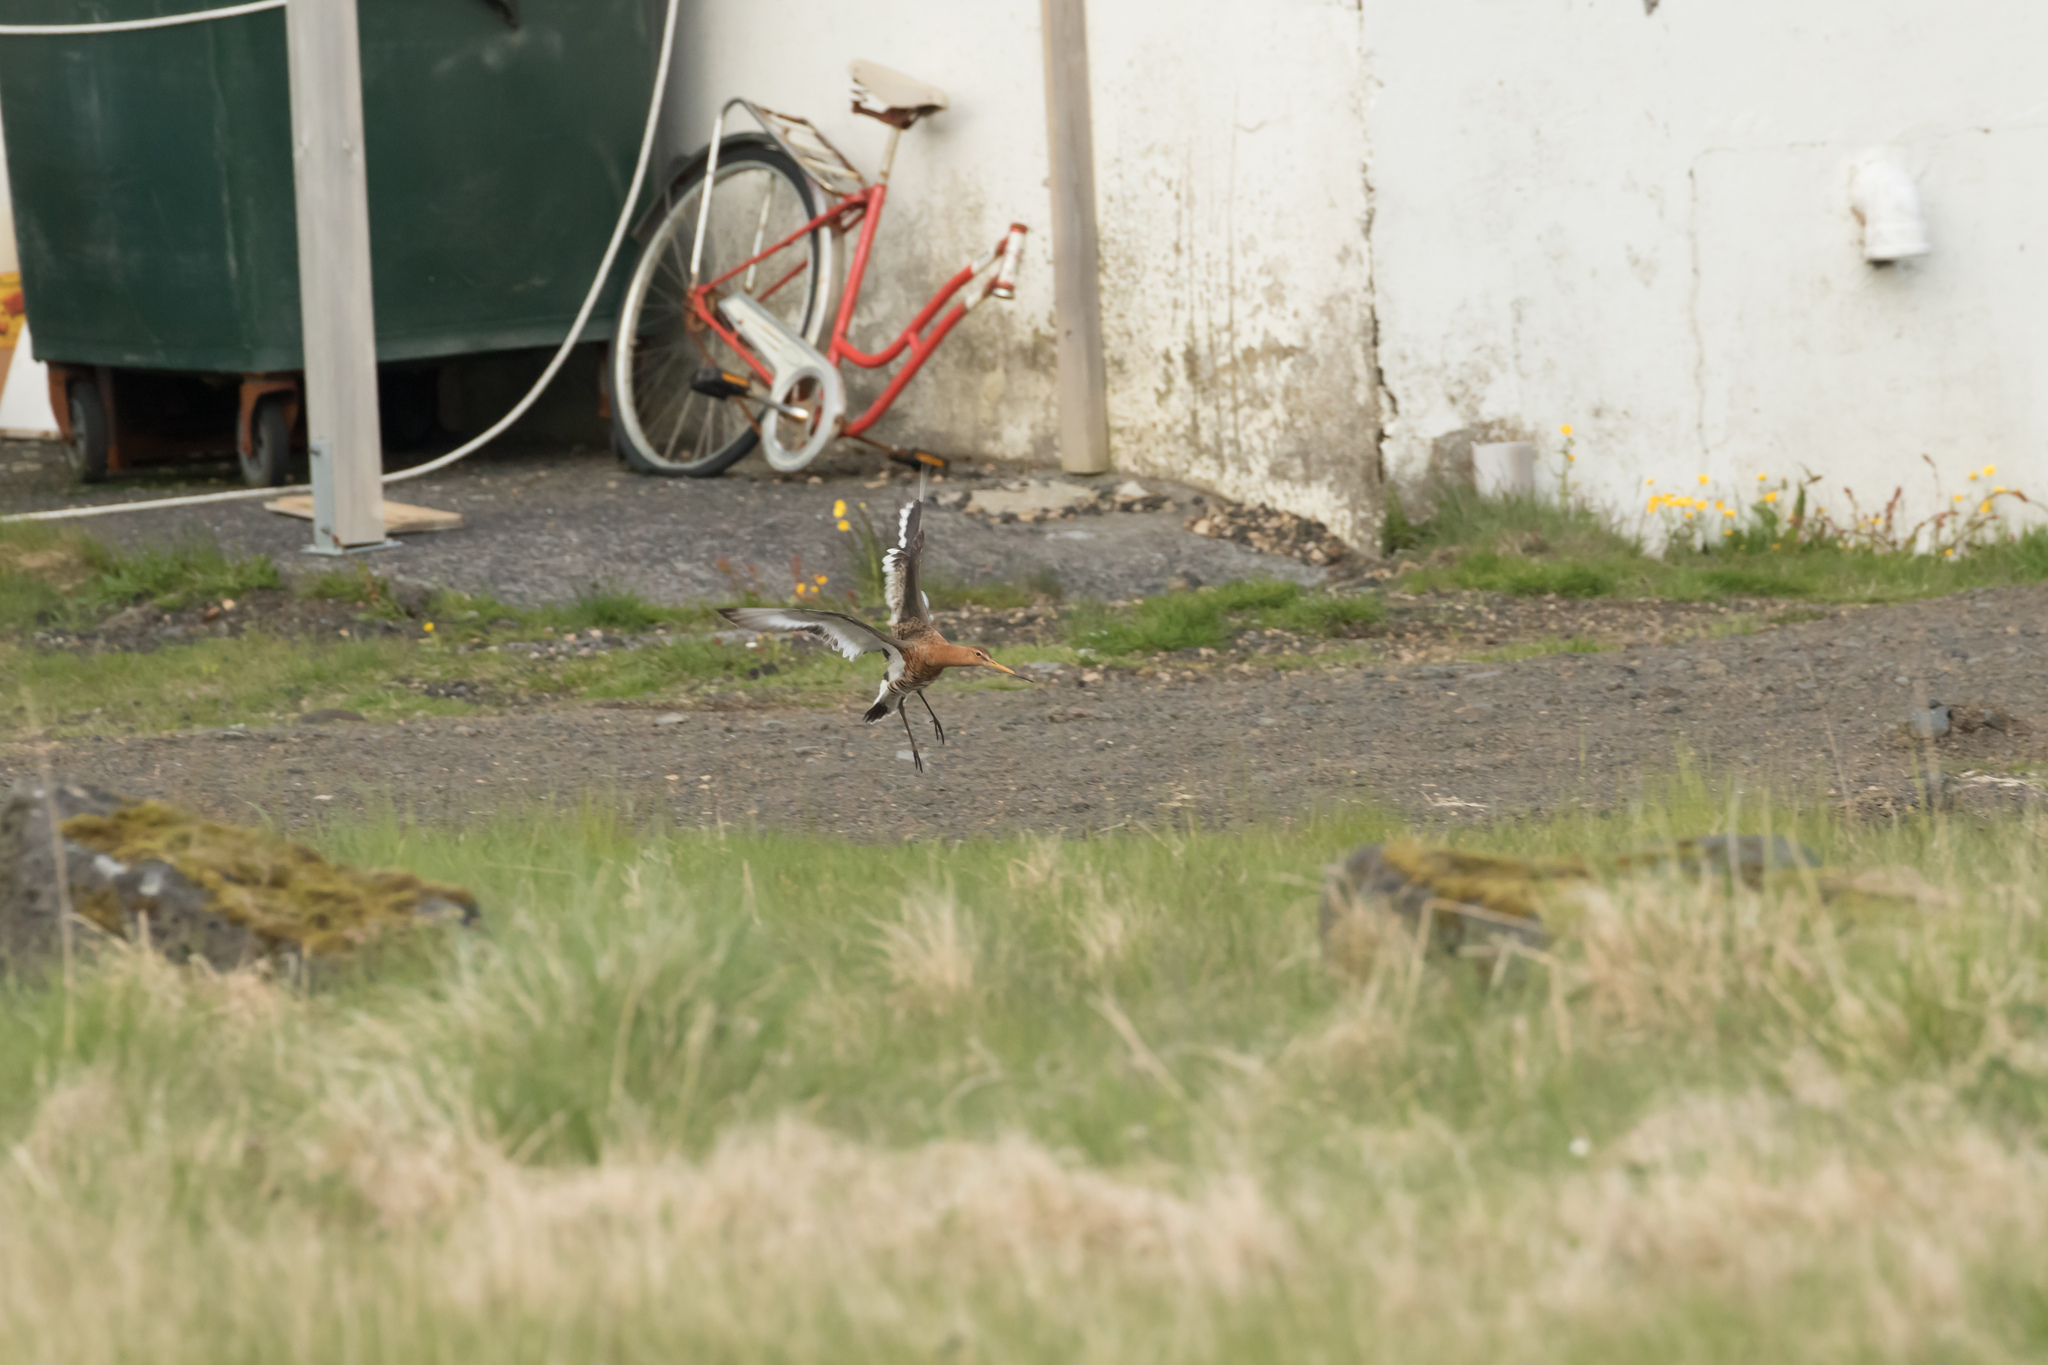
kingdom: Animalia
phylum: Chordata
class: Aves
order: Charadriiformes
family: Scolopacidae
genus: Limosa
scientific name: Limosa limosa
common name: Black-tailed godwit
